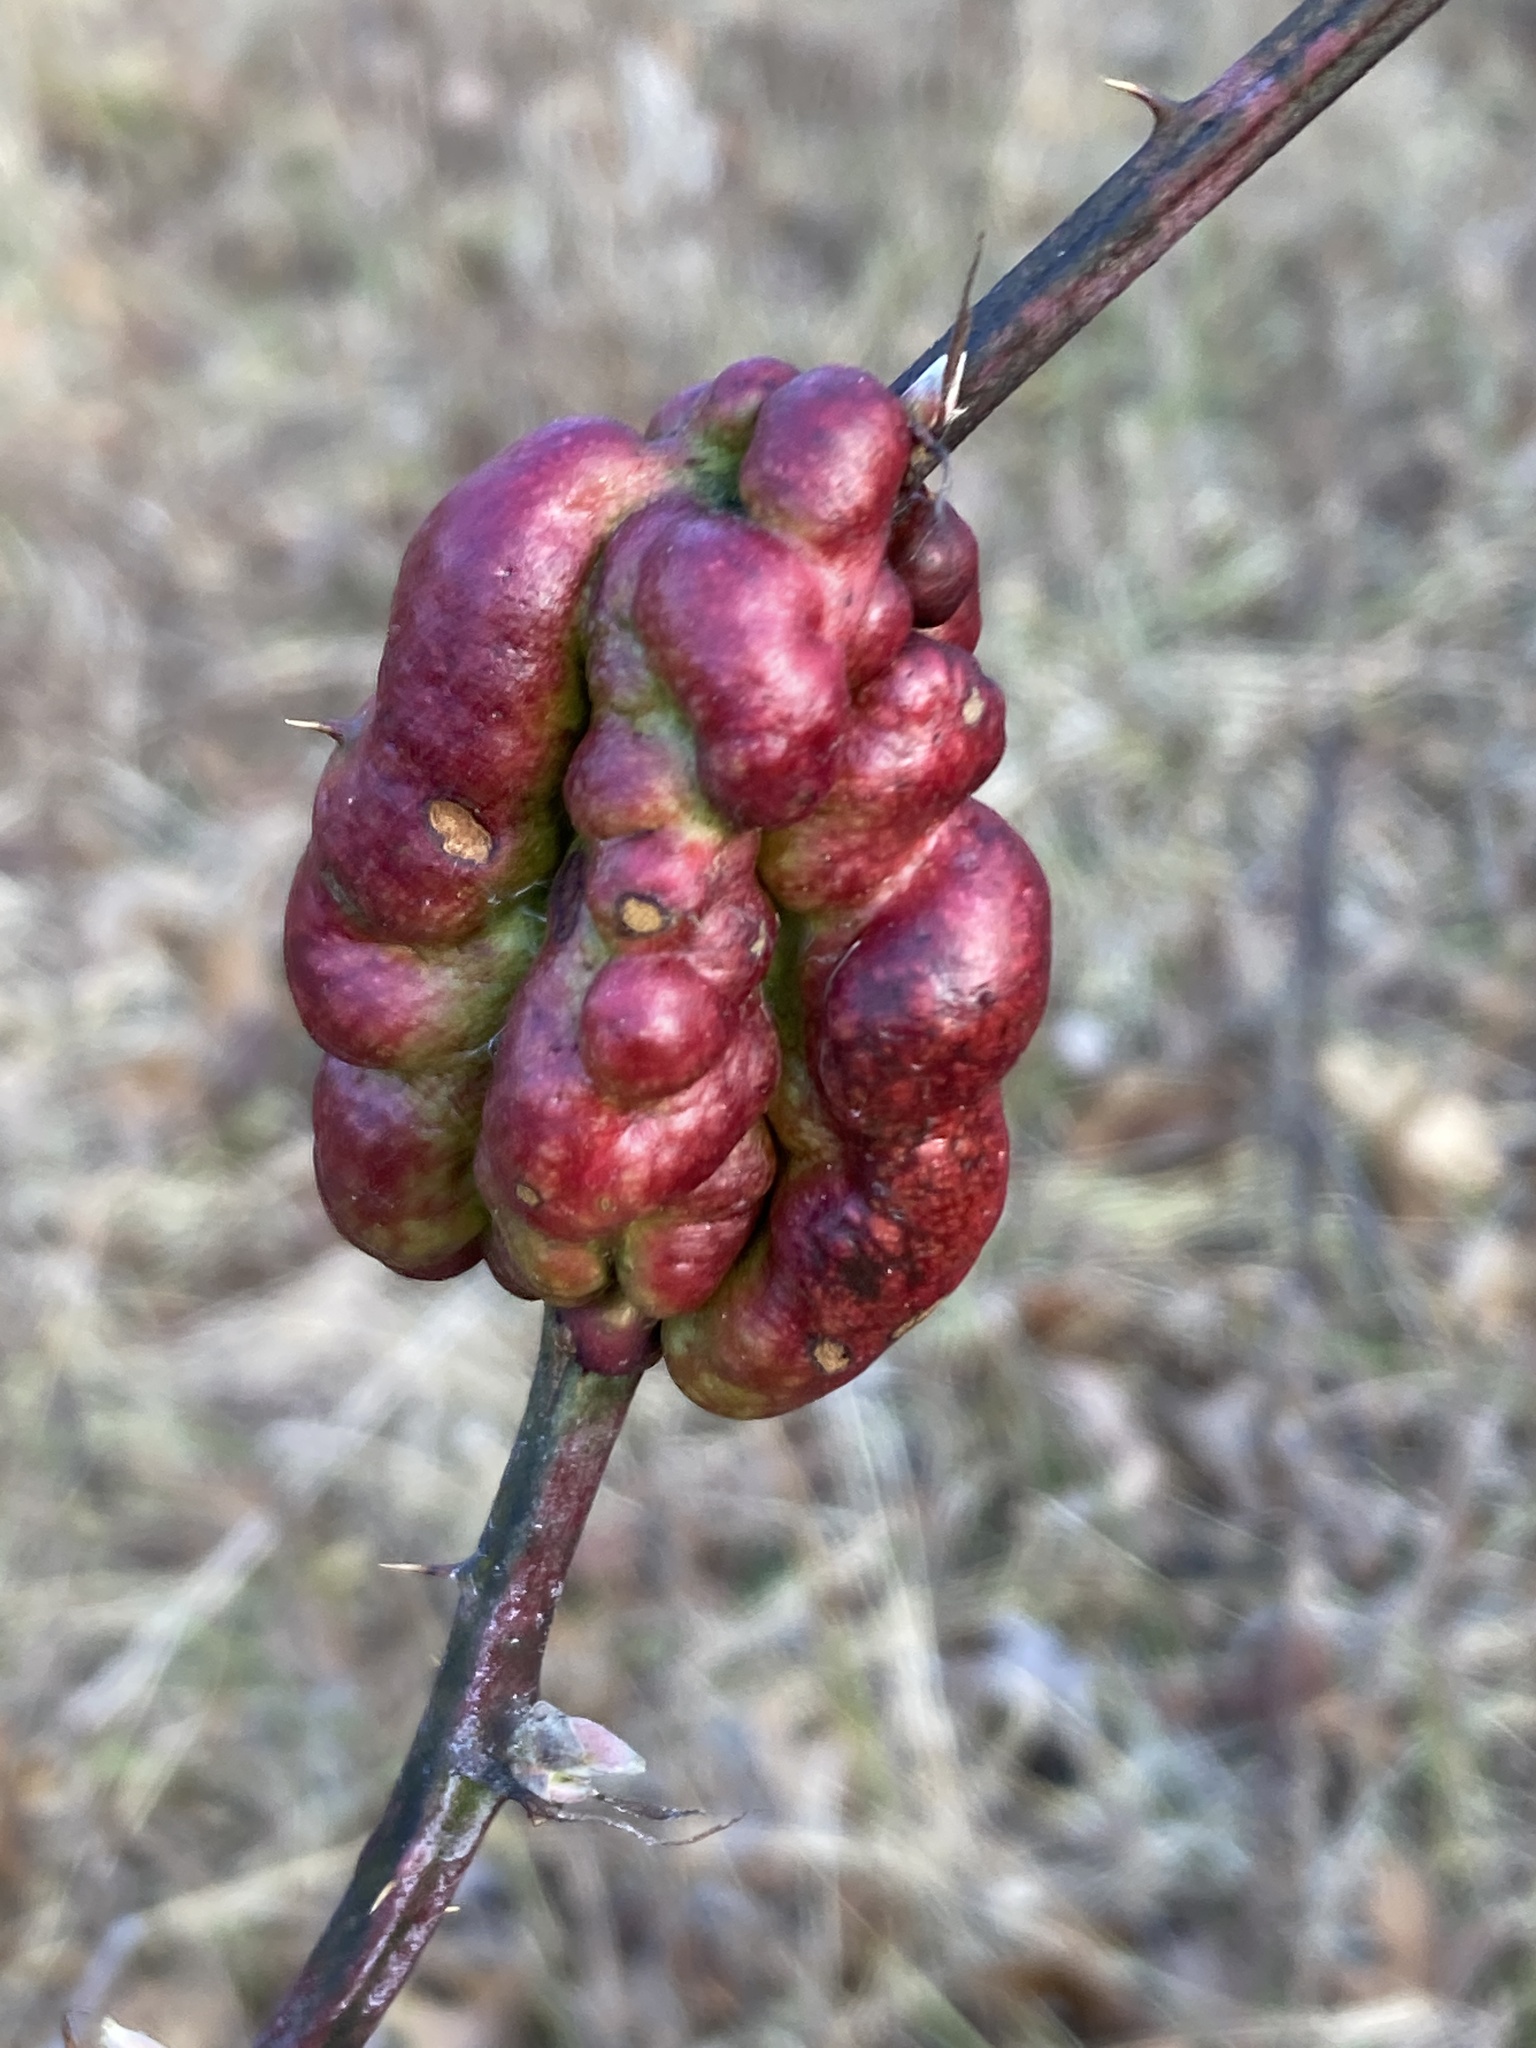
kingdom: Animalia
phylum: Arthropoda
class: Insecta
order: Hymenoptera
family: Cynipidae
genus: Diastrophus
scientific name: Diastrophus
